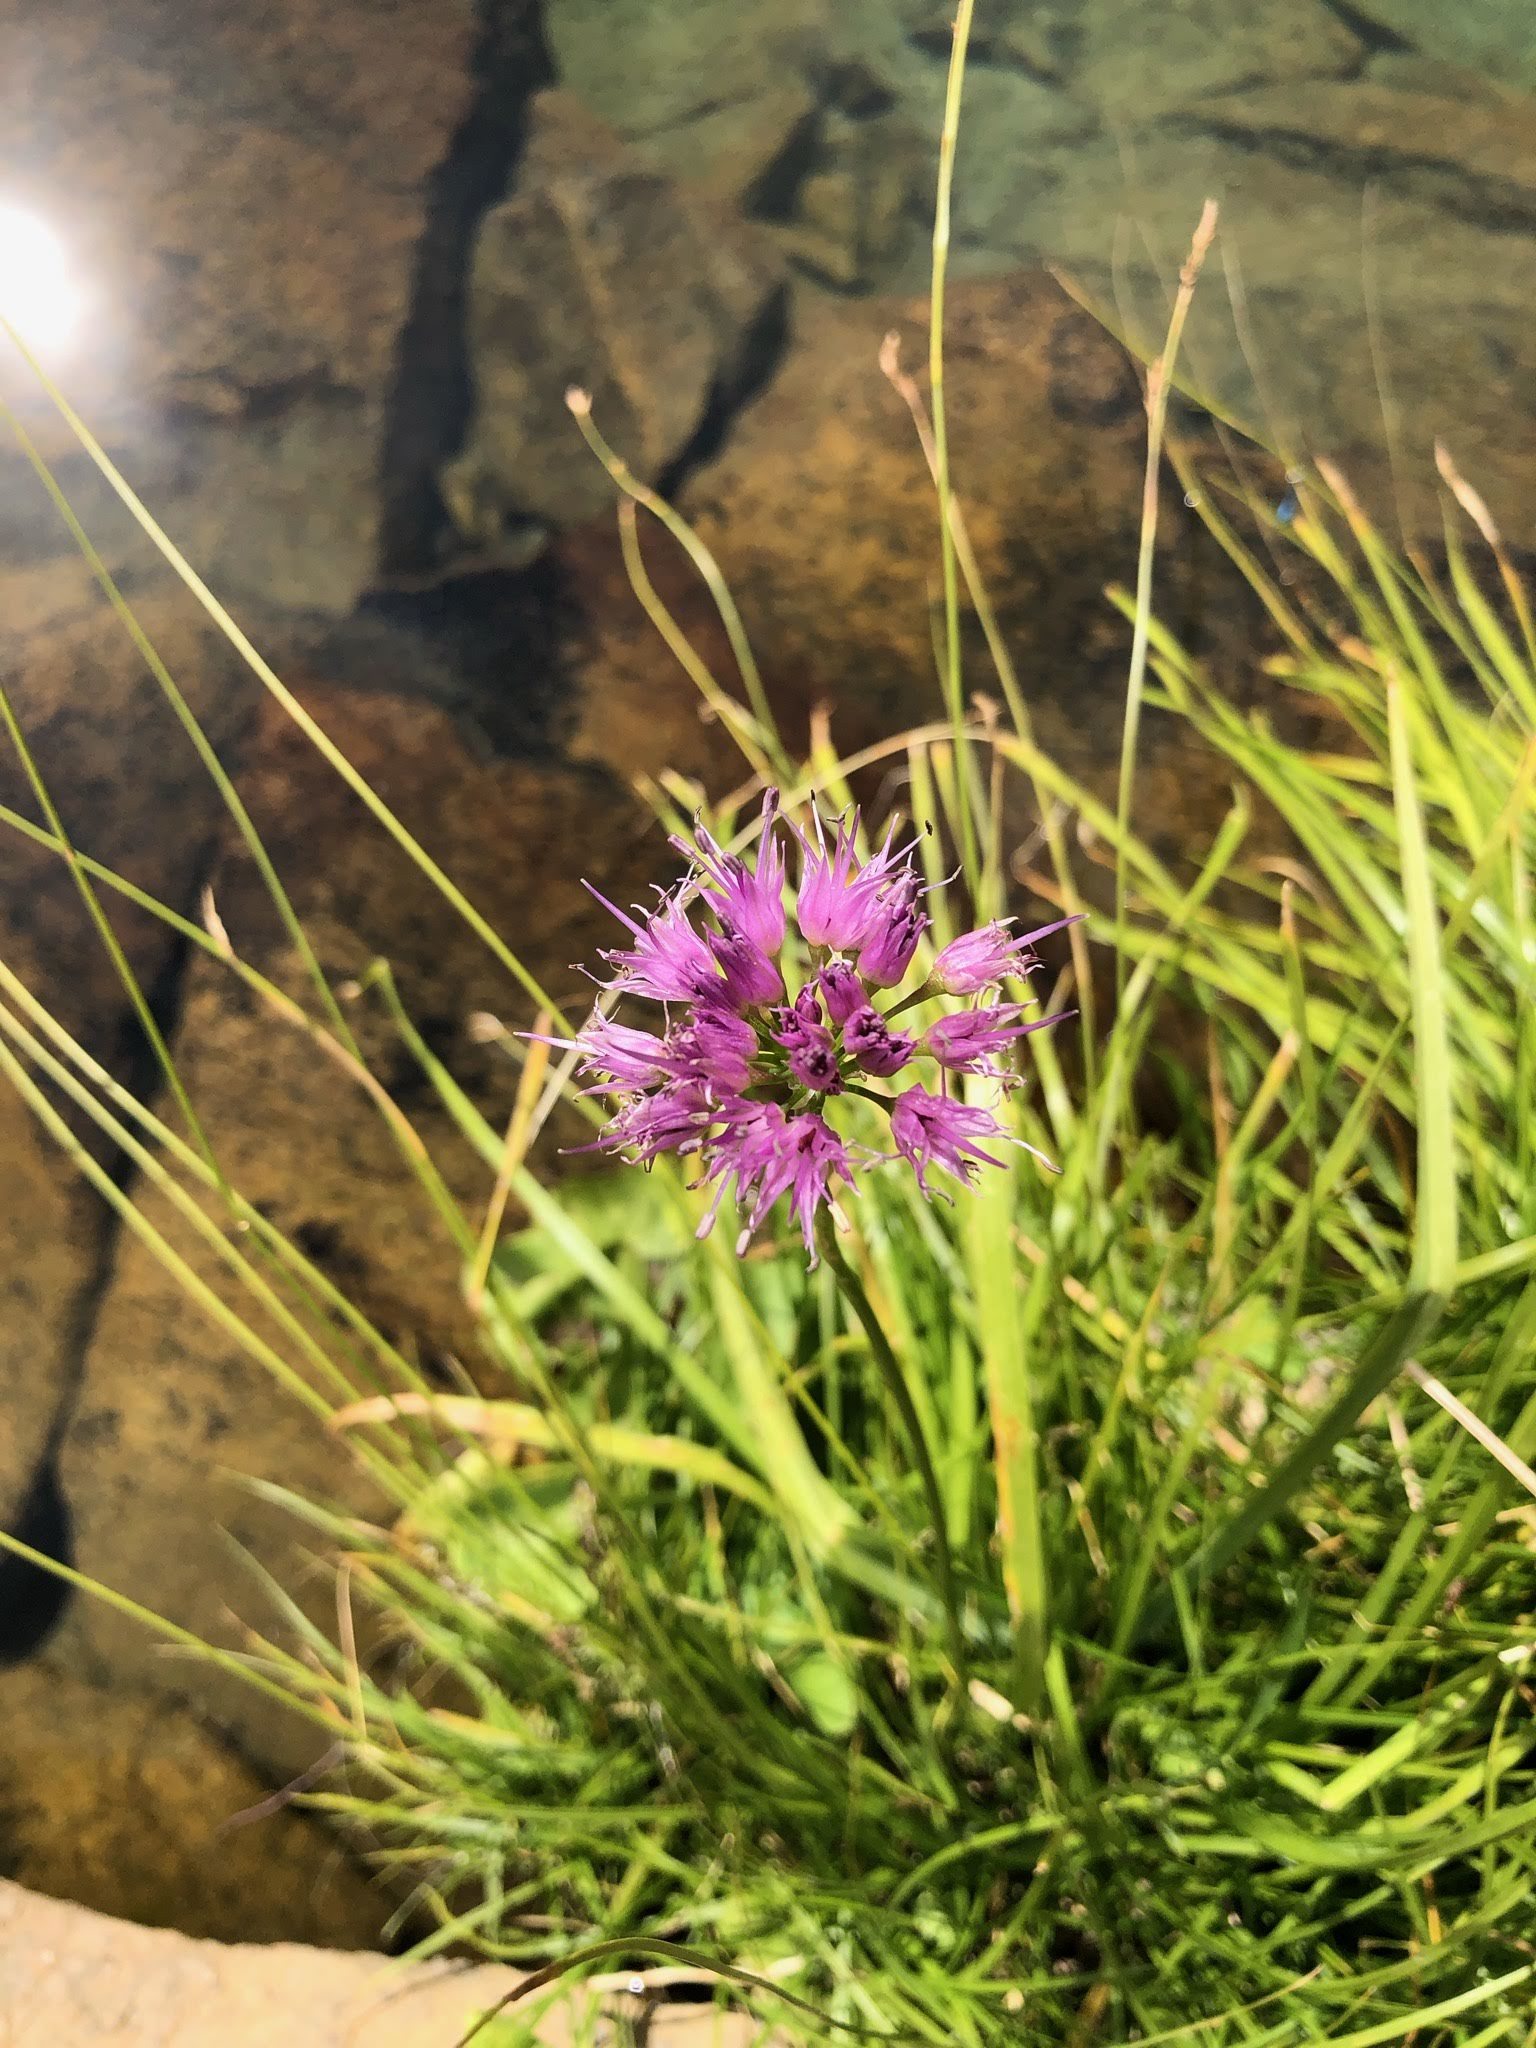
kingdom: Plantae
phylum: Tracheophyta
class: Liliopsida
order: Asparagales
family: Amaryllidaceae
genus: Allium
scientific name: Allium validum
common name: Pacific mountain onion
